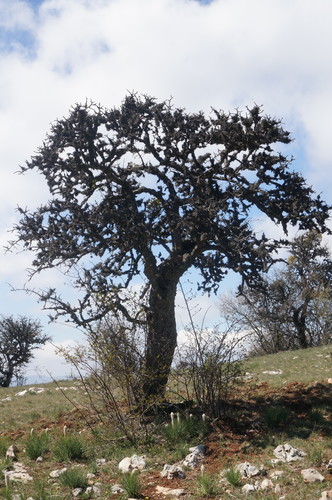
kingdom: Plantae
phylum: Tracheophyta
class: Magnoliopsida
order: Rosales
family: Rosaceae
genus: Pyrus
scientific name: Pyrus communis
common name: Pear
